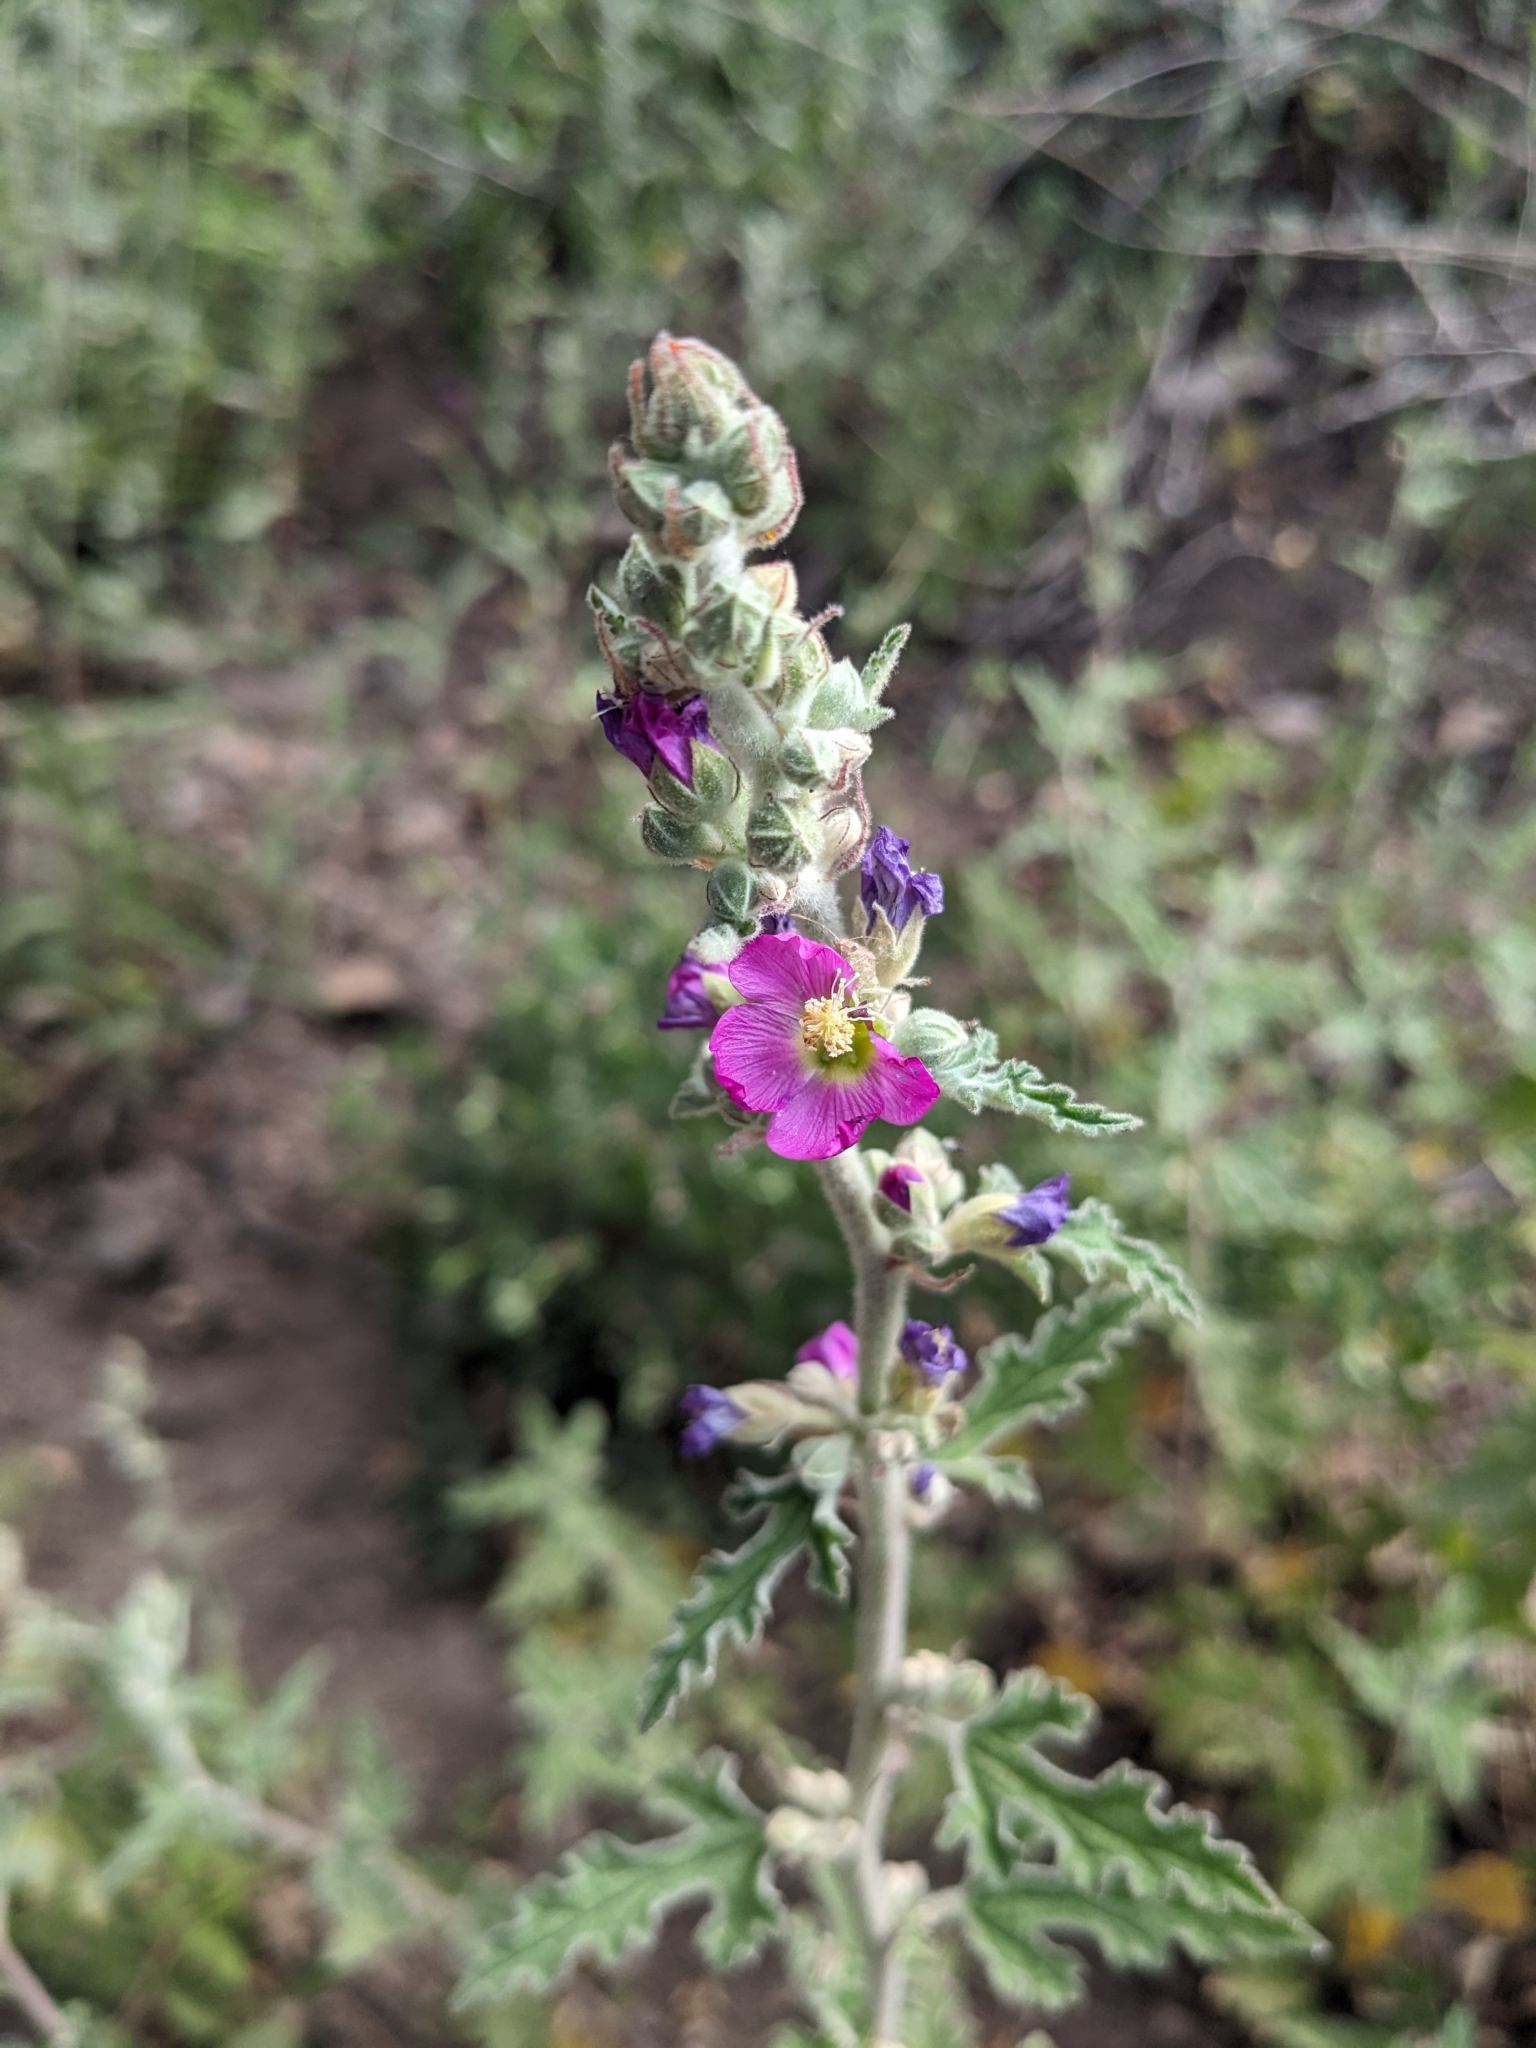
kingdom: Plantae
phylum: Tracheophyta
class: Magnoliopsida
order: Malvales
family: Malvaceae
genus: Sphaeralcea
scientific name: Sphaeralcea fendleri
